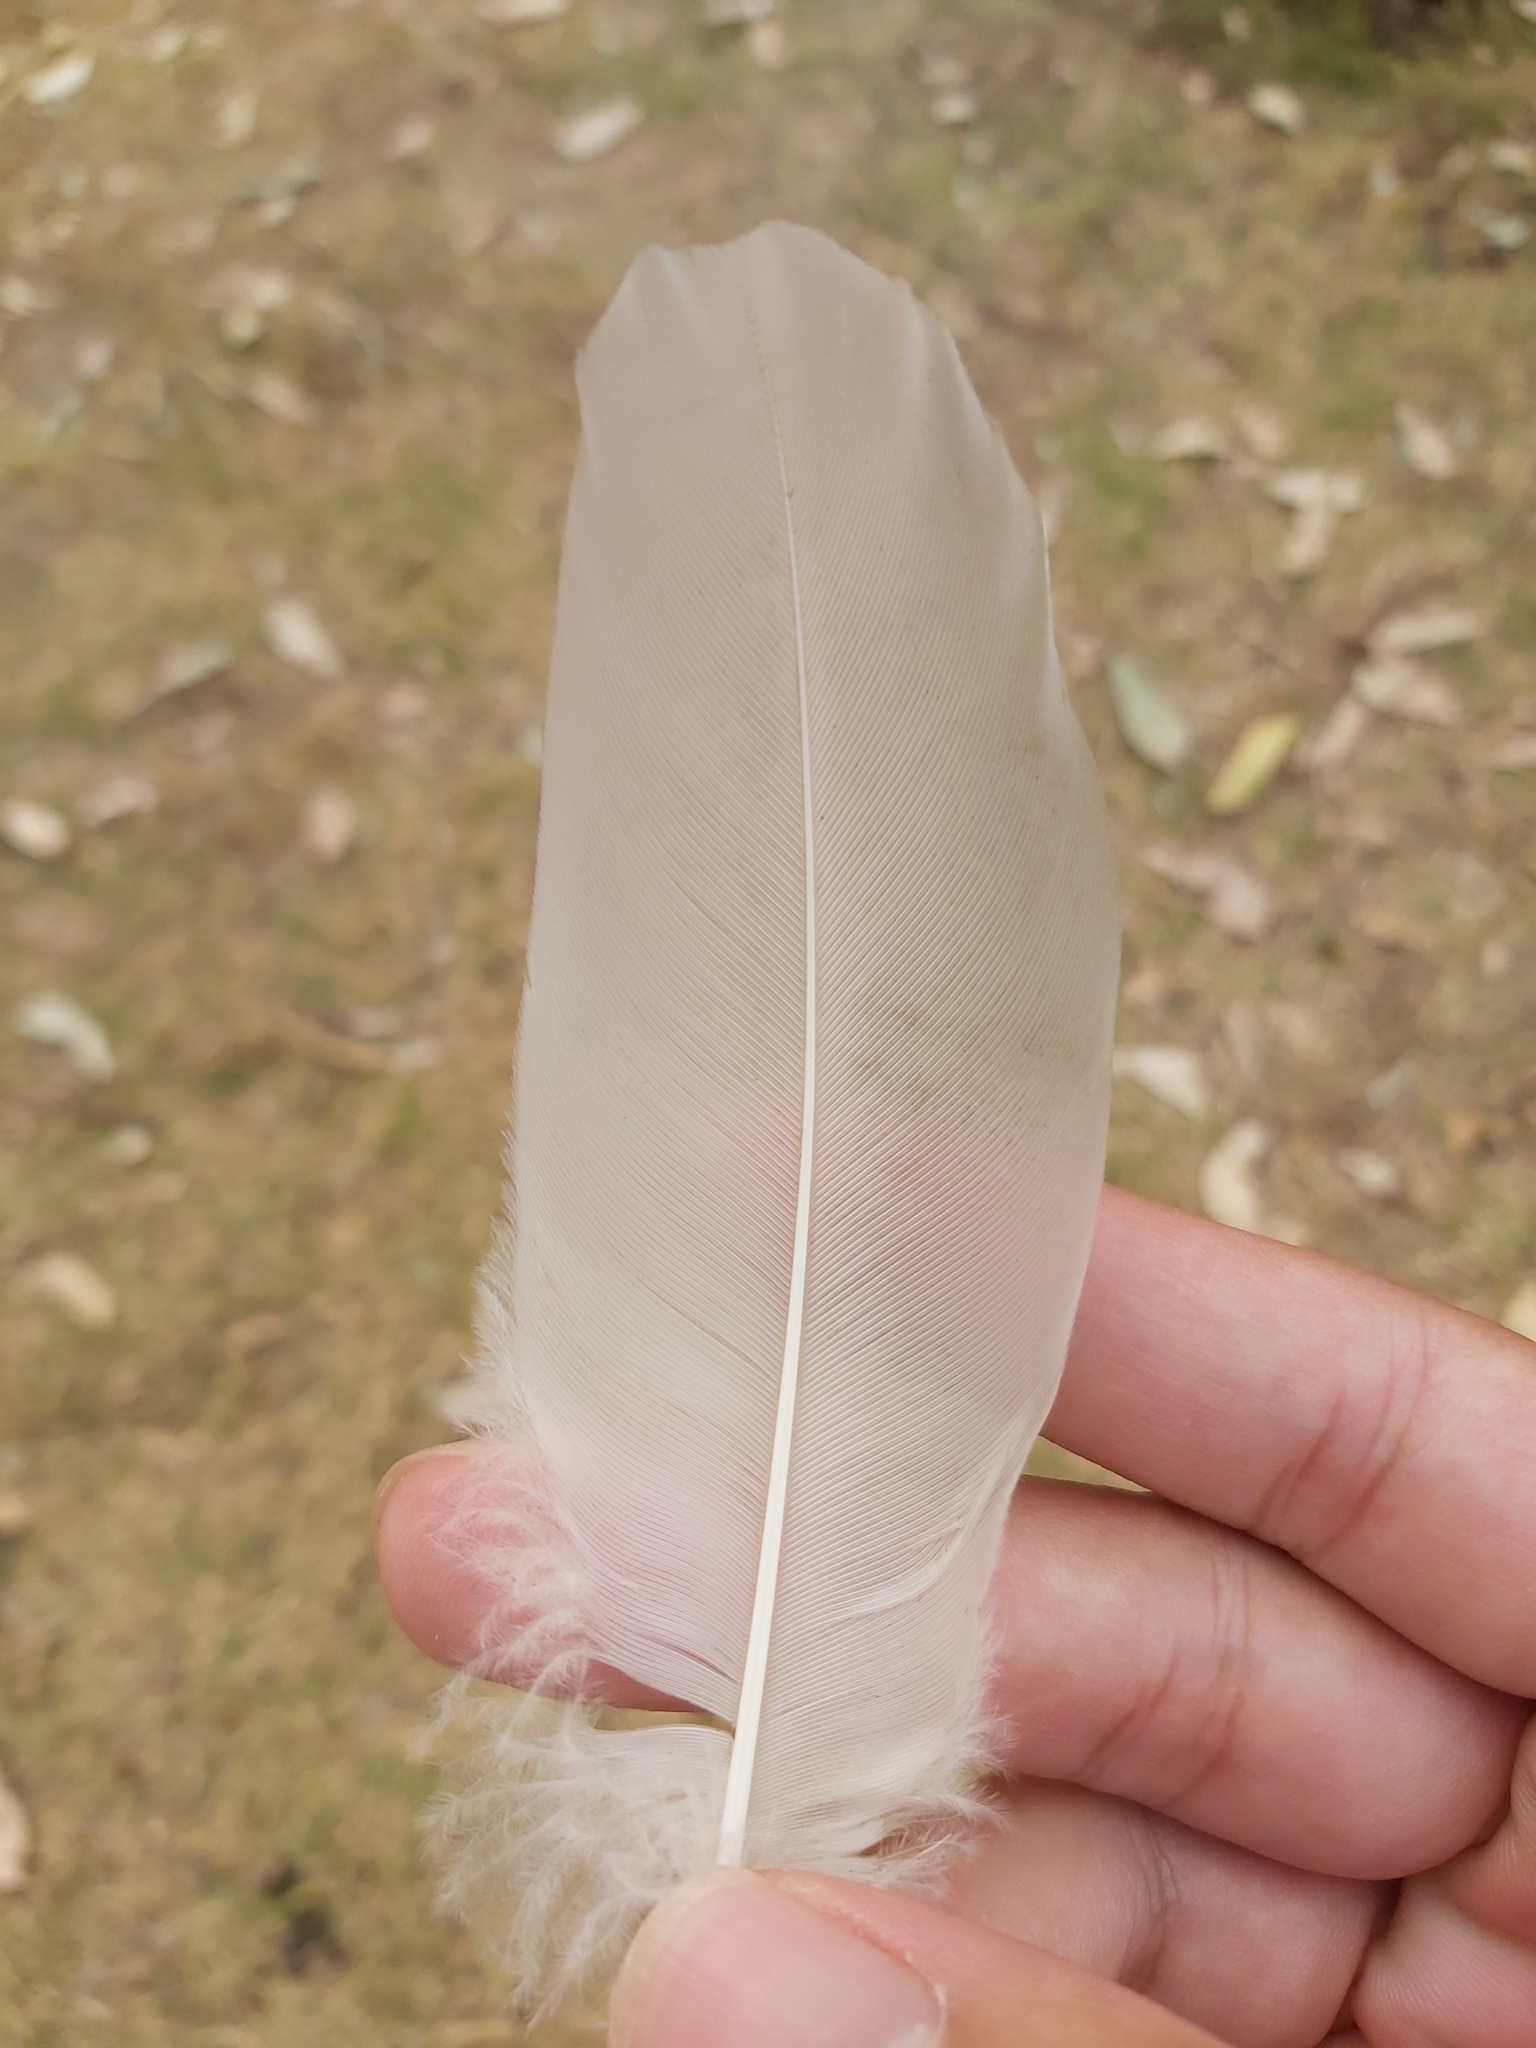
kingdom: Animalia
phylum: Chordata
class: Aves
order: Pelecaniformes
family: Threskiornithidae
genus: Threskiornis
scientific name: Threskiornis molucca
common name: Australian white ibis
